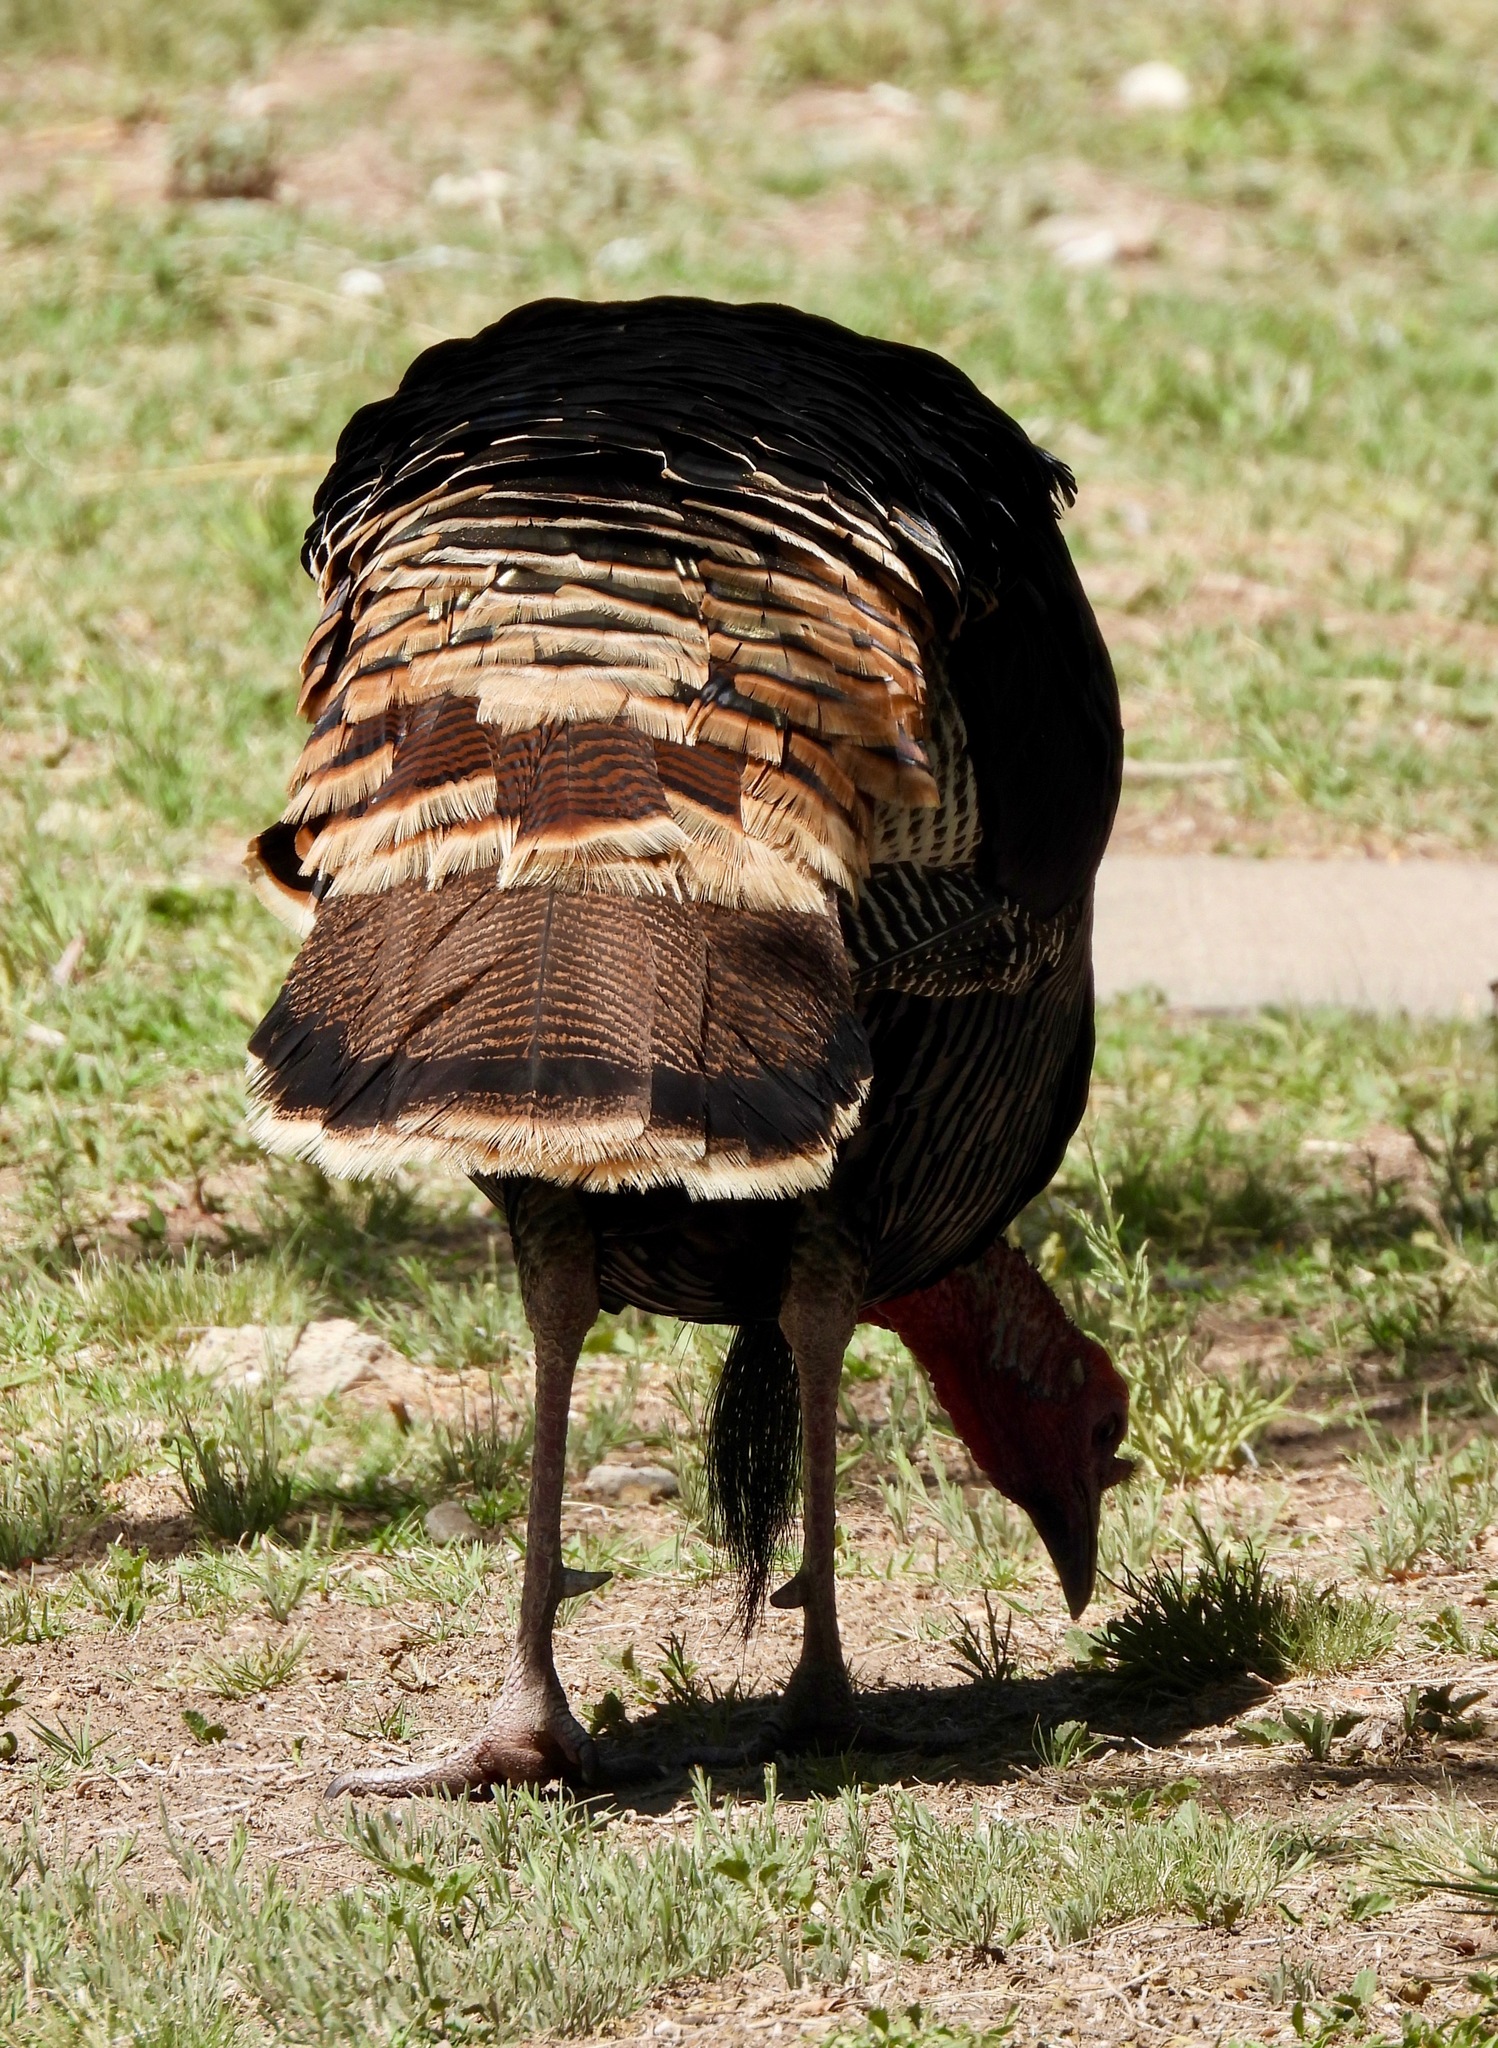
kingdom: Animalia
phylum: Chordata
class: Aves
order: Galliformes
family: Phasianidae
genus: Meleagris
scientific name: Meleagris gallopavo
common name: Wild turkey
